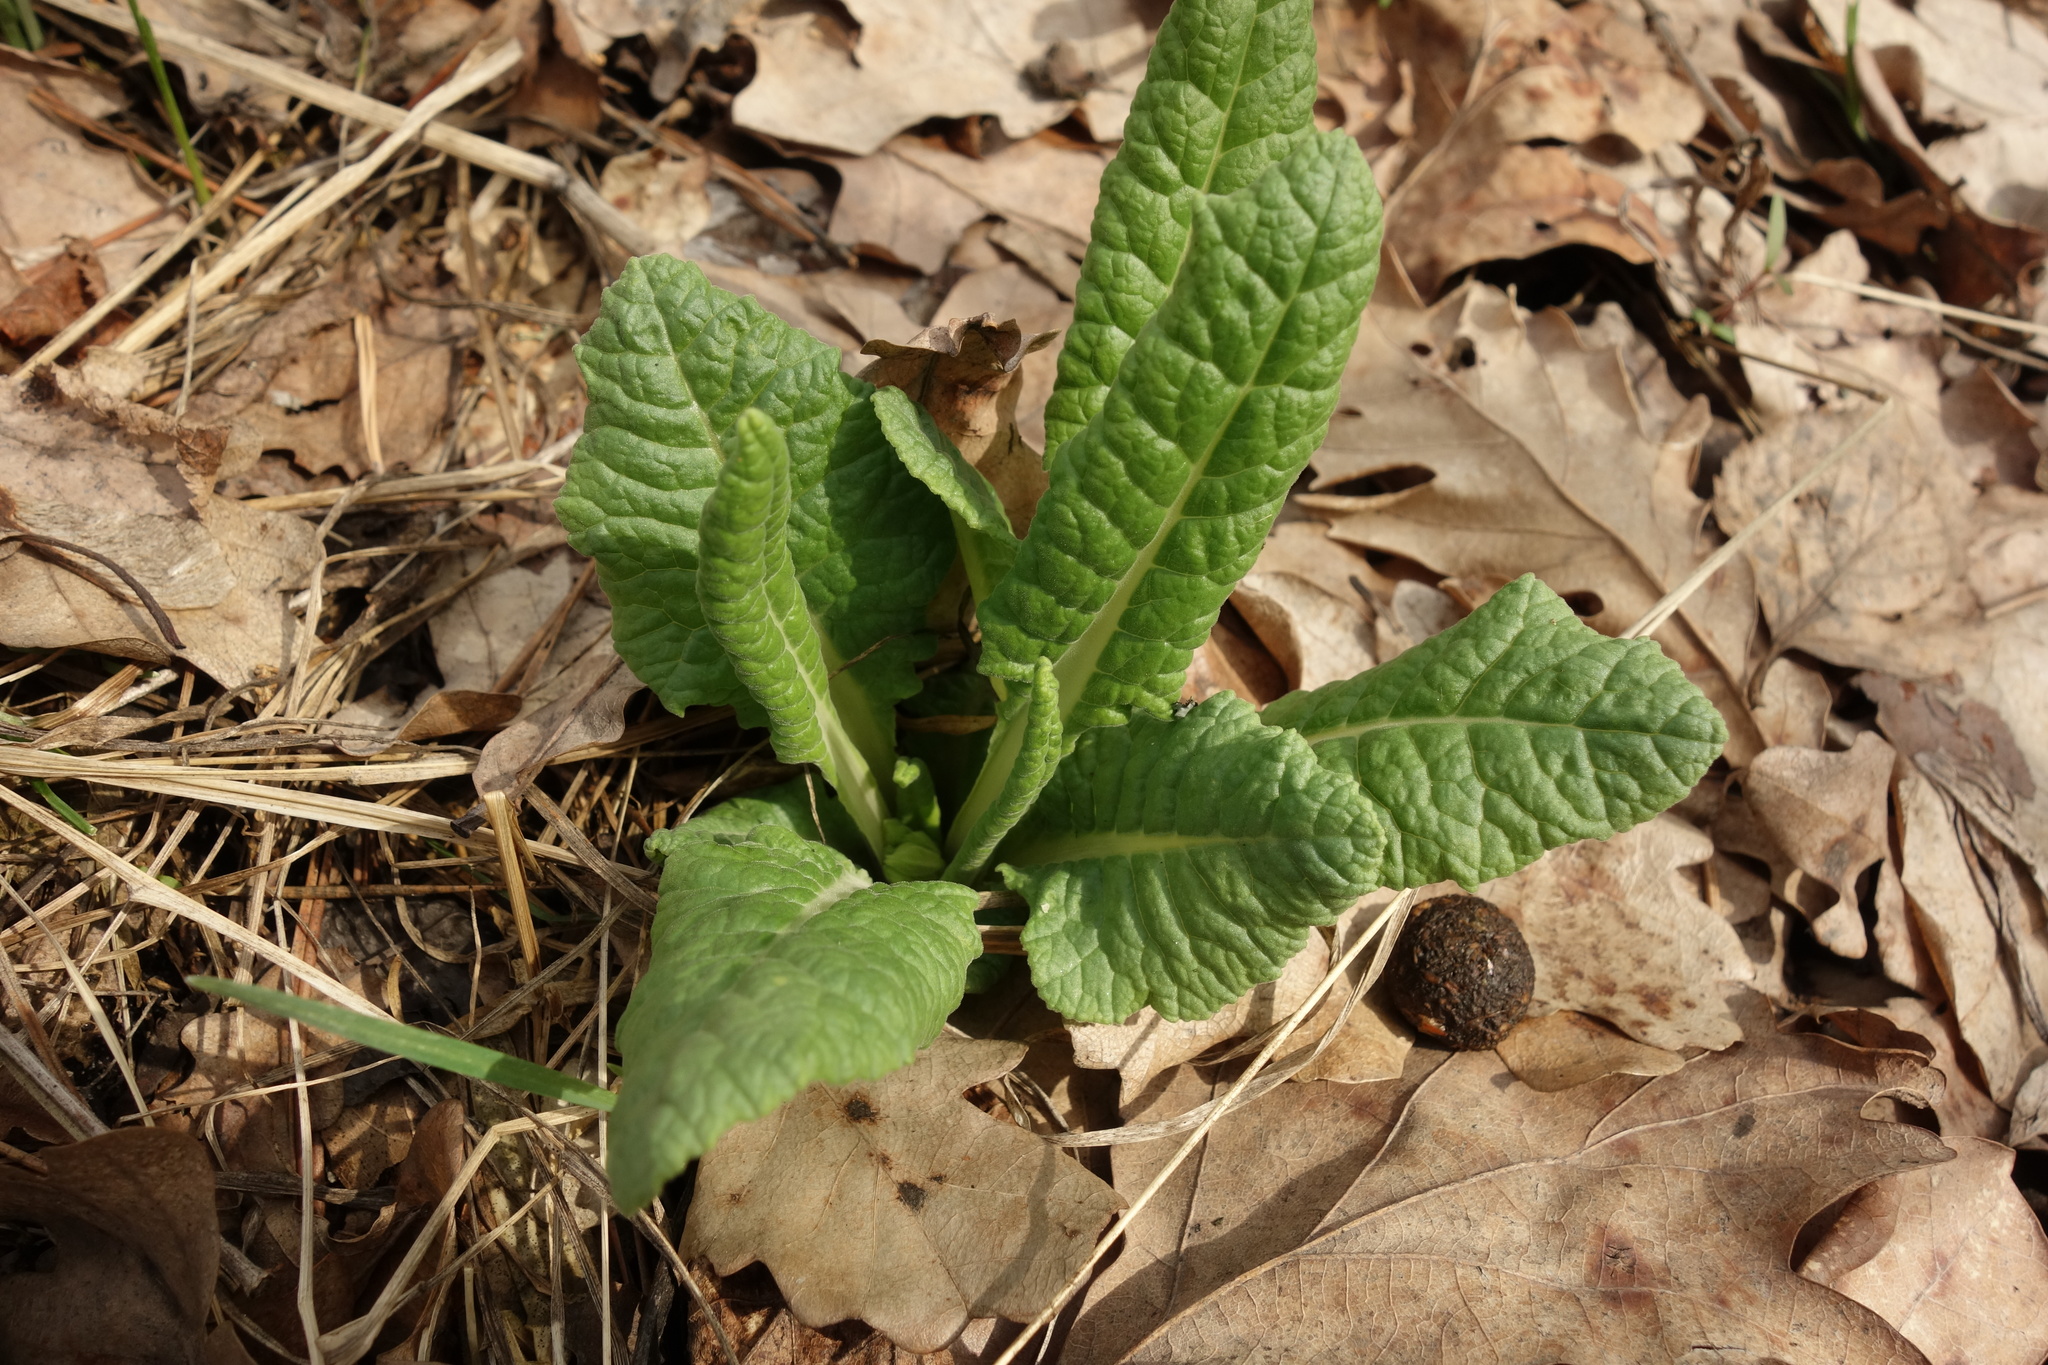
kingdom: Plantae
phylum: Tracheophyta
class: Magnoliopsida
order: Ericales
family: Primulaceae
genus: Primula
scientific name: Primula veris
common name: Cowslip
